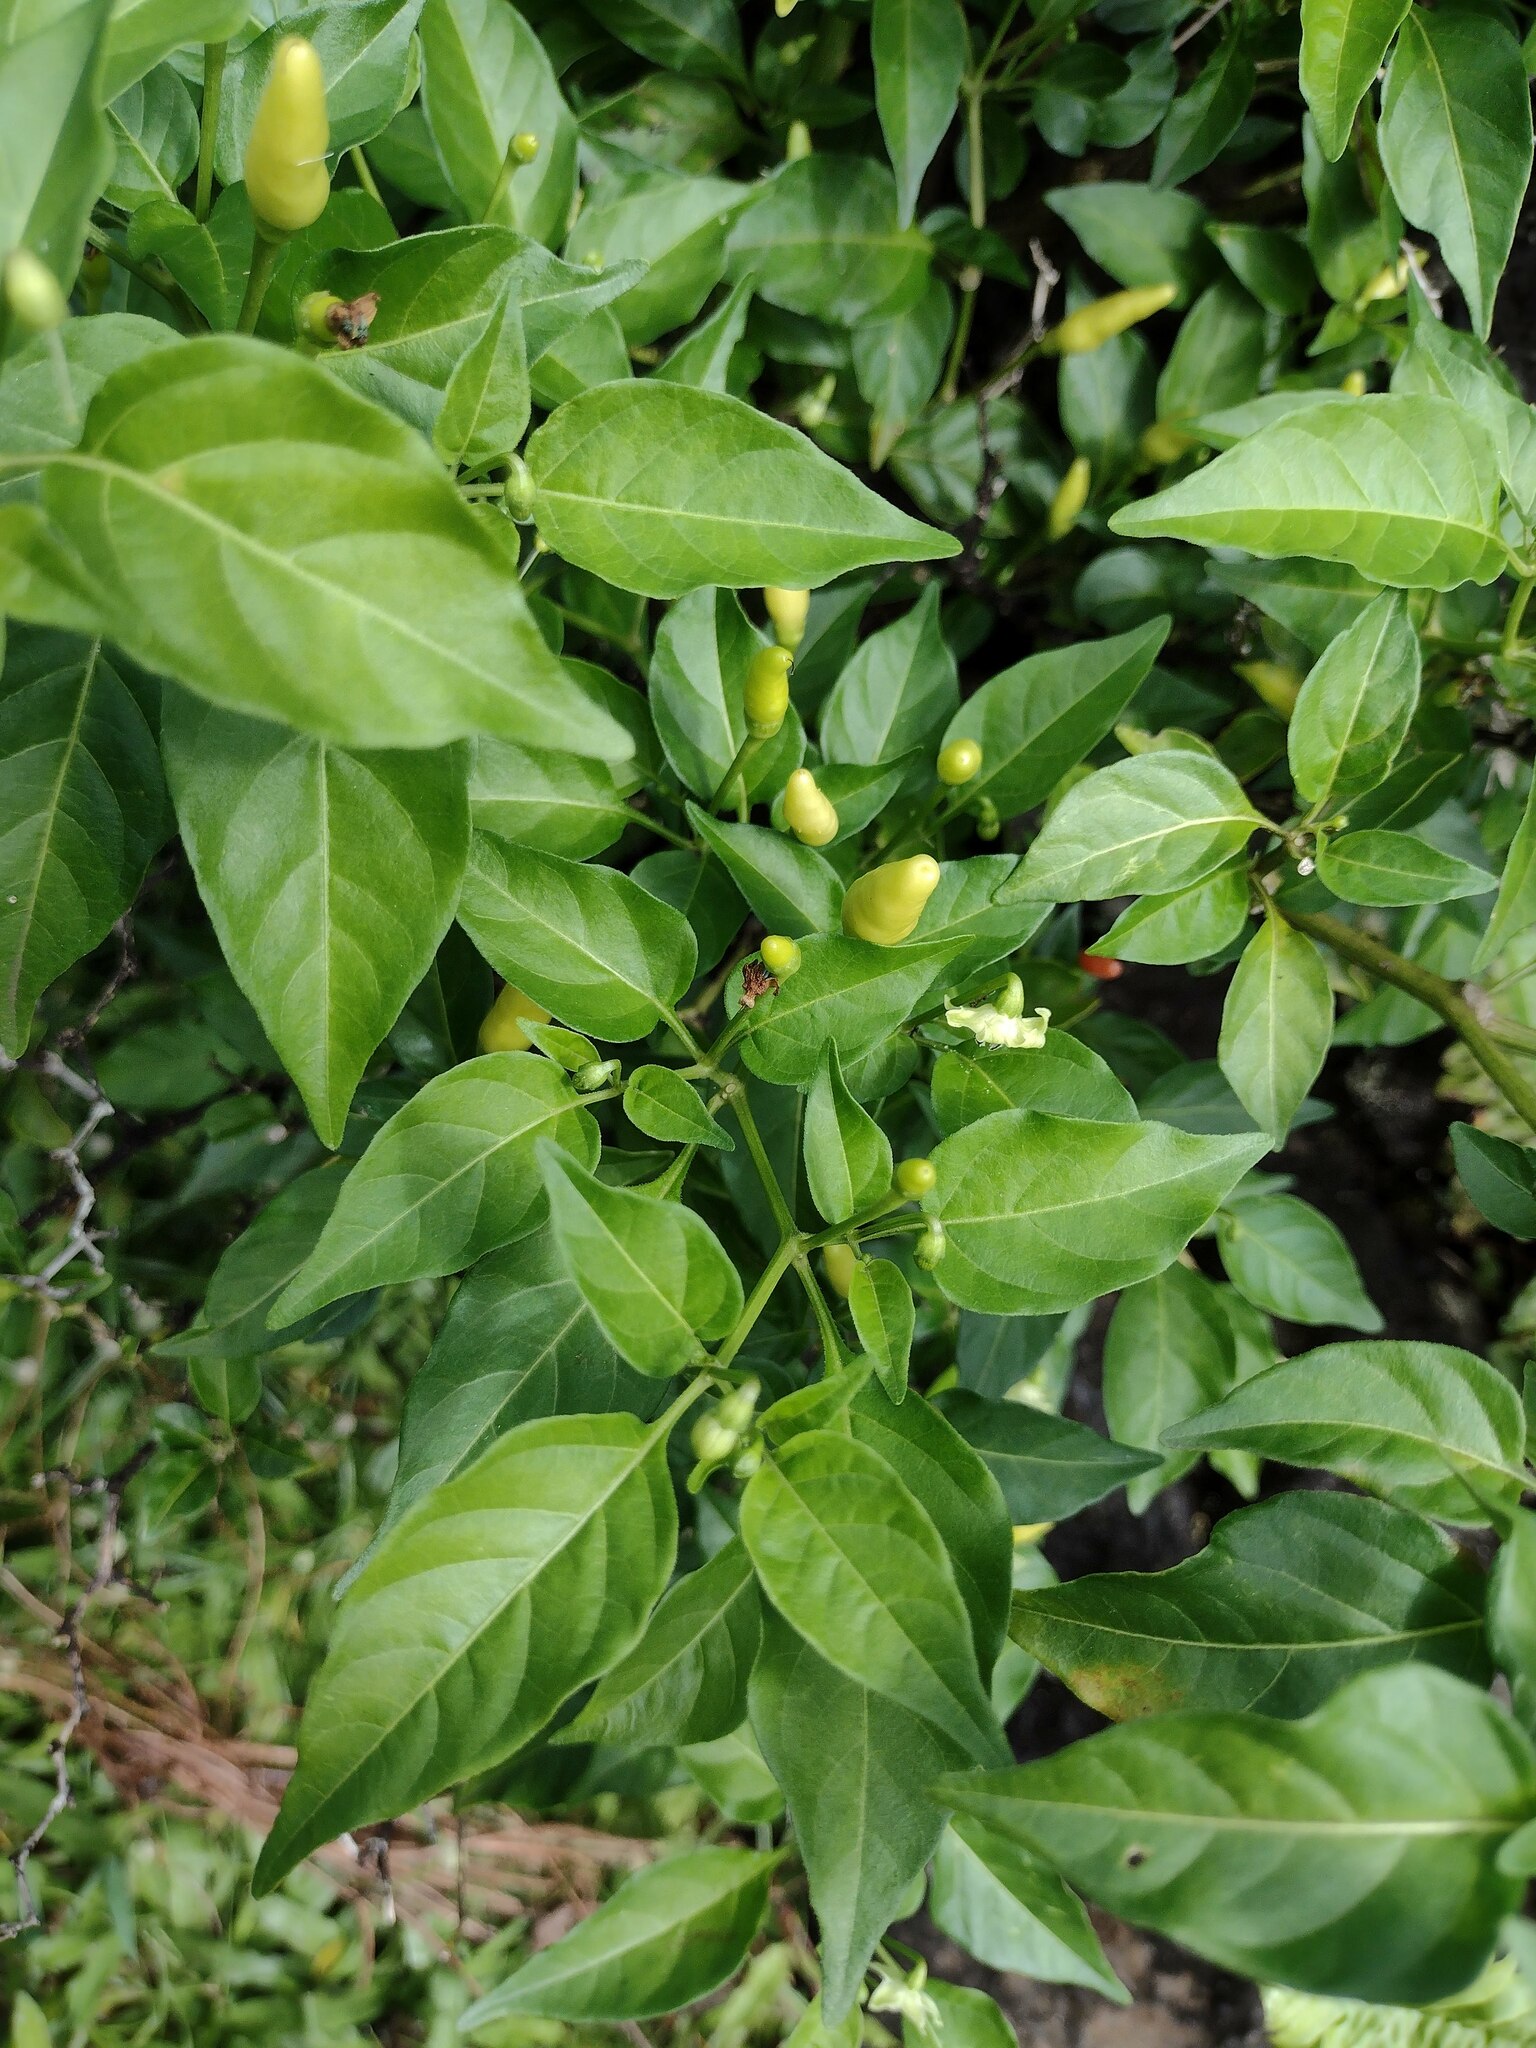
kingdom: Plantae
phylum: Tracheophyta
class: Magnoliopsida
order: Solanales
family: Solanaceae
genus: Capsicum
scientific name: Capsicum annuum
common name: Sweet pepper
